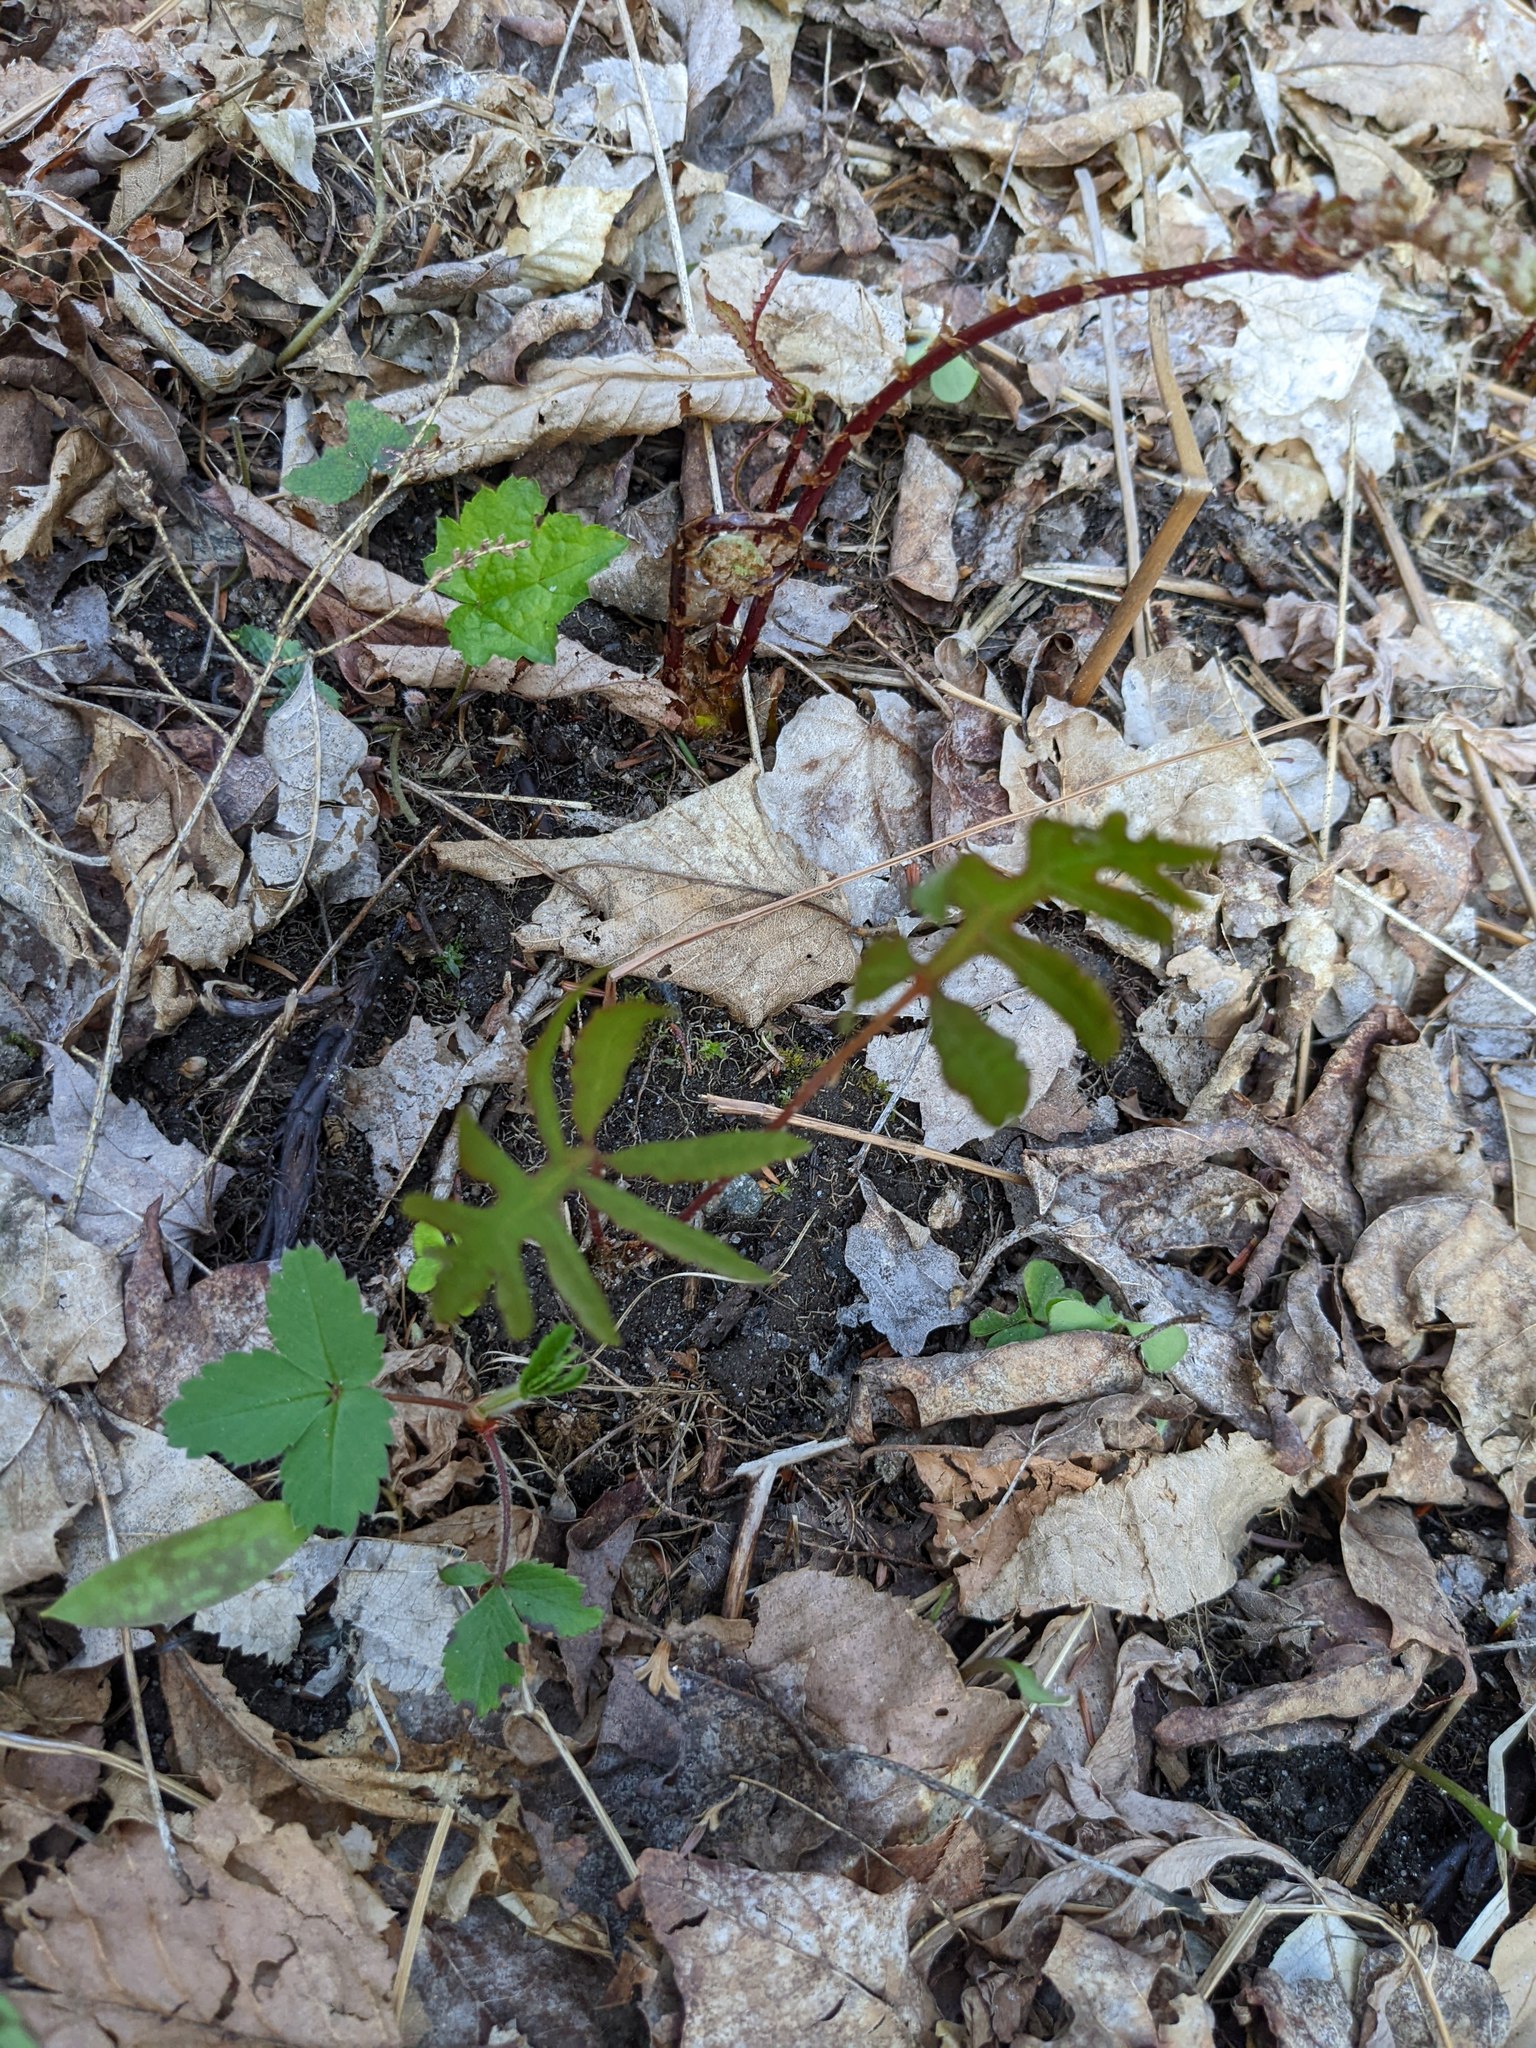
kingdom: Plantae
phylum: Tracheophyta
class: Polypodiopsida
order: Polypodiales
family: Onocleaceae
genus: Onoclea
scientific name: Onoclea sensibilis
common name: Sensitive fern
